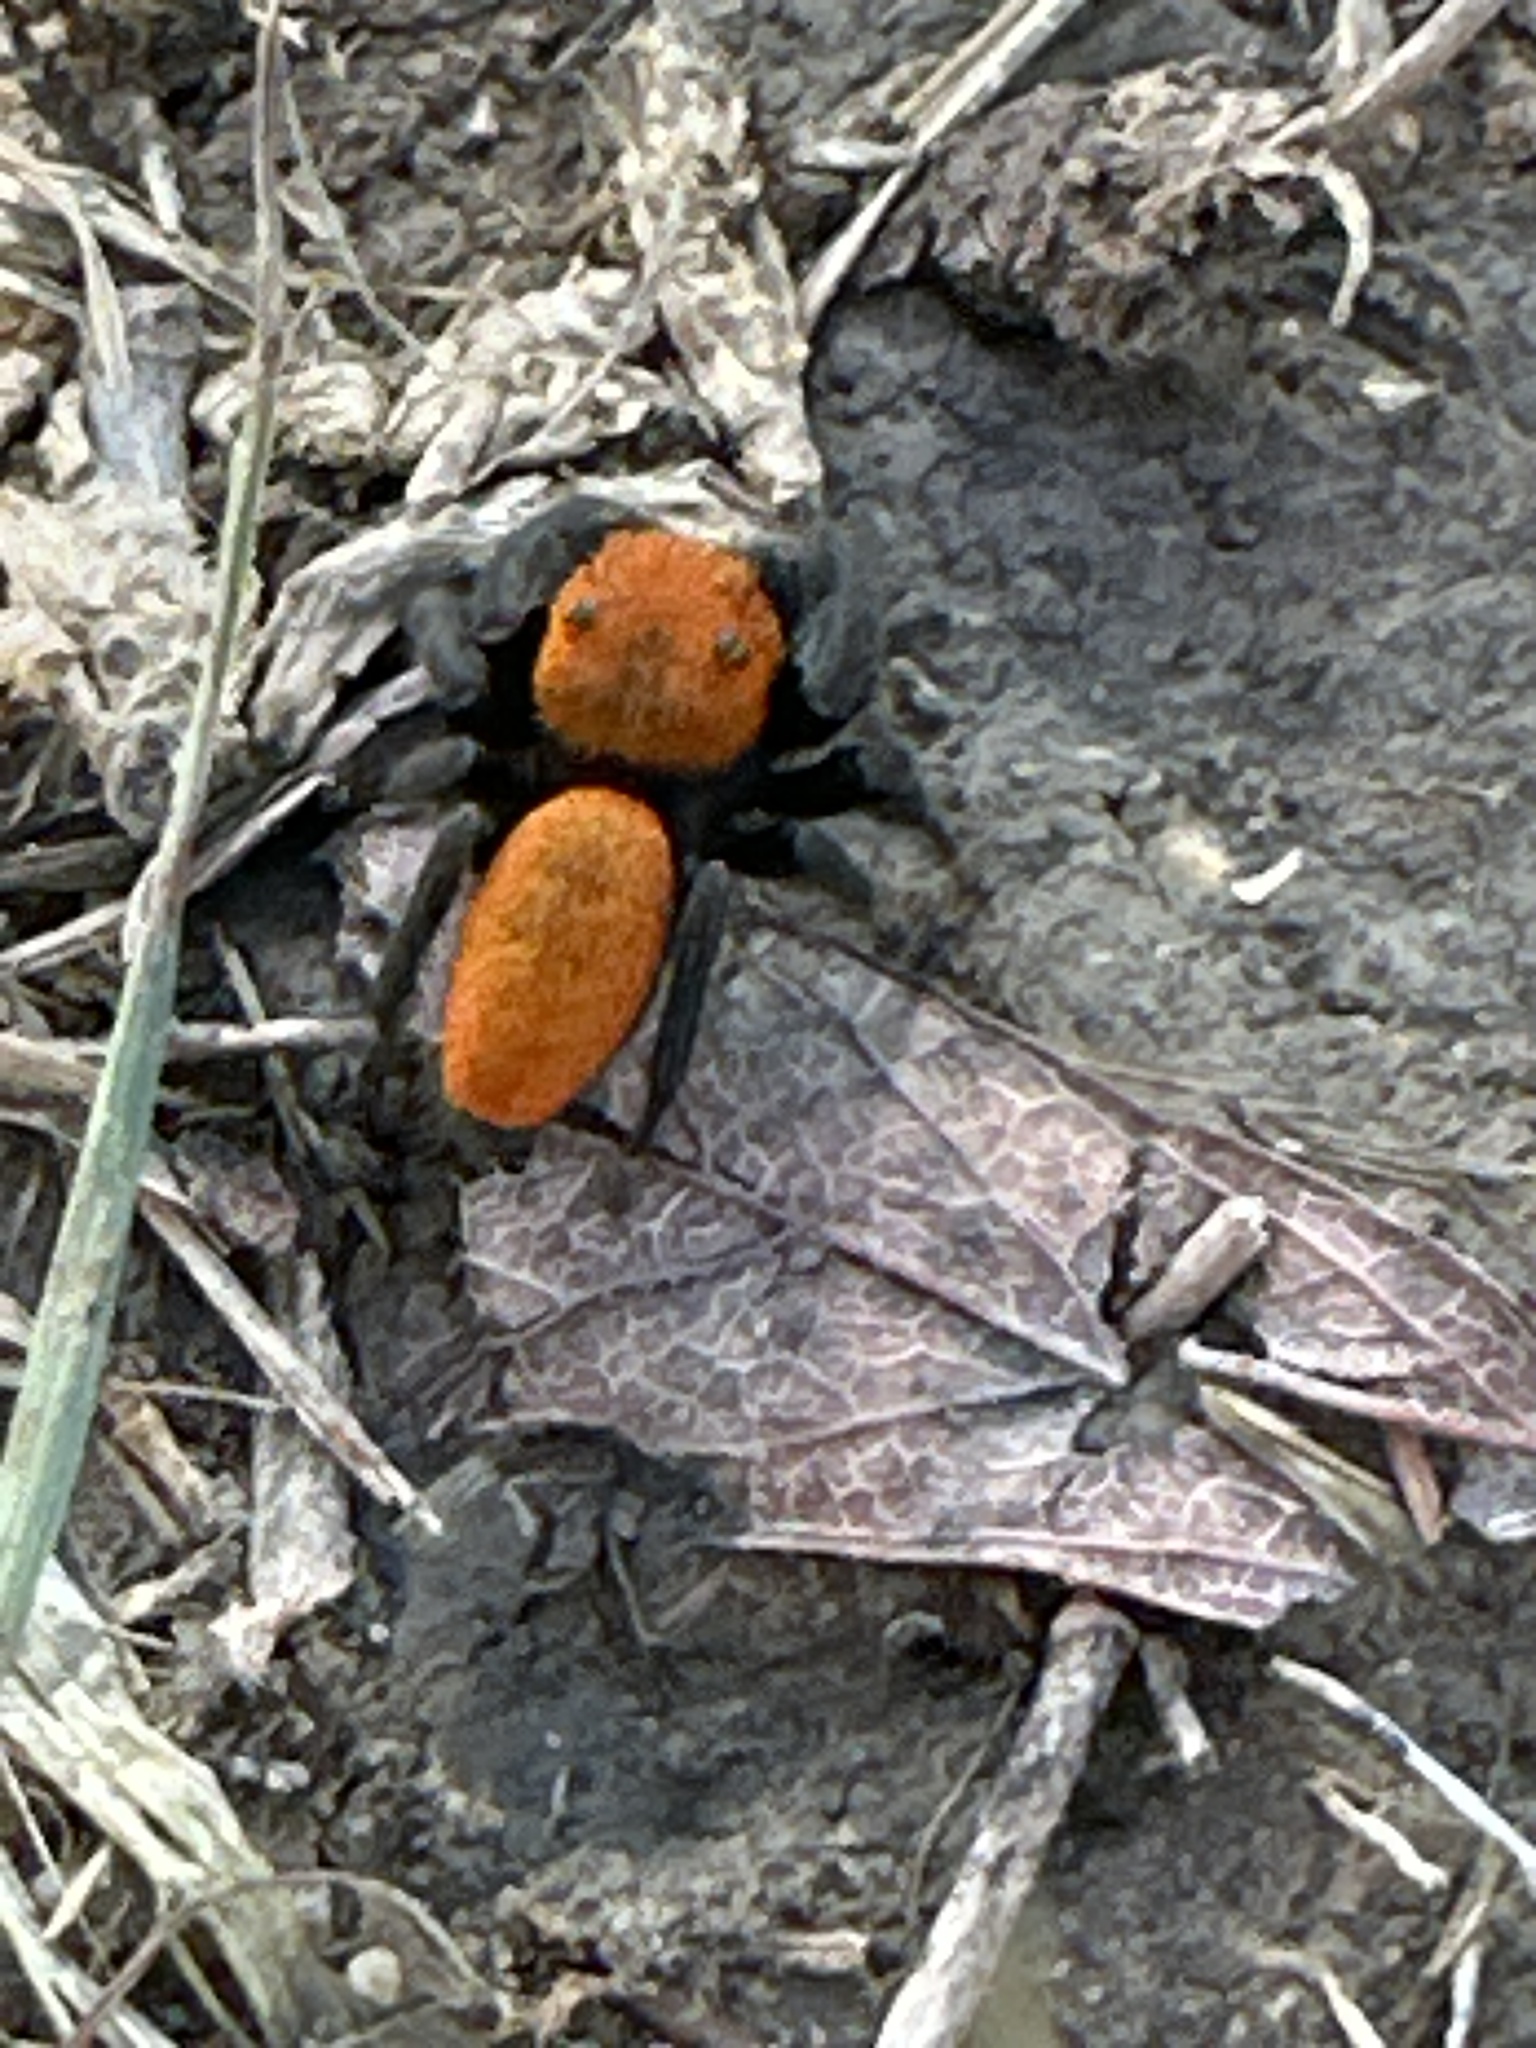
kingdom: Animalia
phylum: Arthropoda
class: Arachnida
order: Araneae
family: Salticidae
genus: Phidippus
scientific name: Phidippus cardinalis
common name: Cardinal jumper
